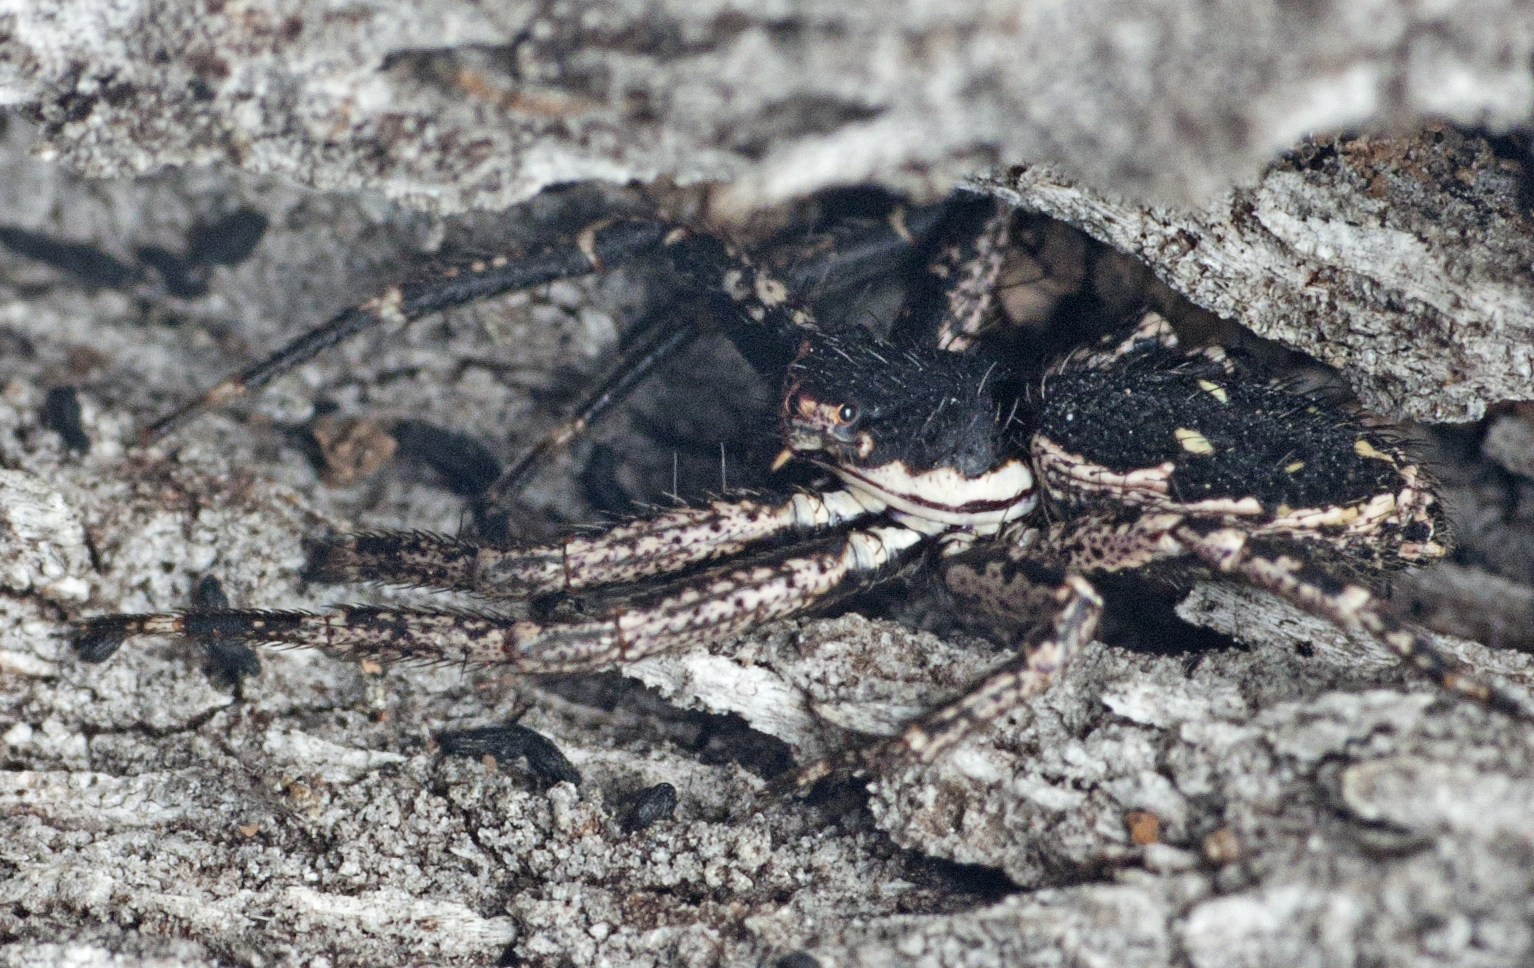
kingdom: Animalia
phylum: Arthropoda
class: Arachnida
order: Araneae
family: Thomisidae
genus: Tharpyna
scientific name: Tharpyna campestrata
